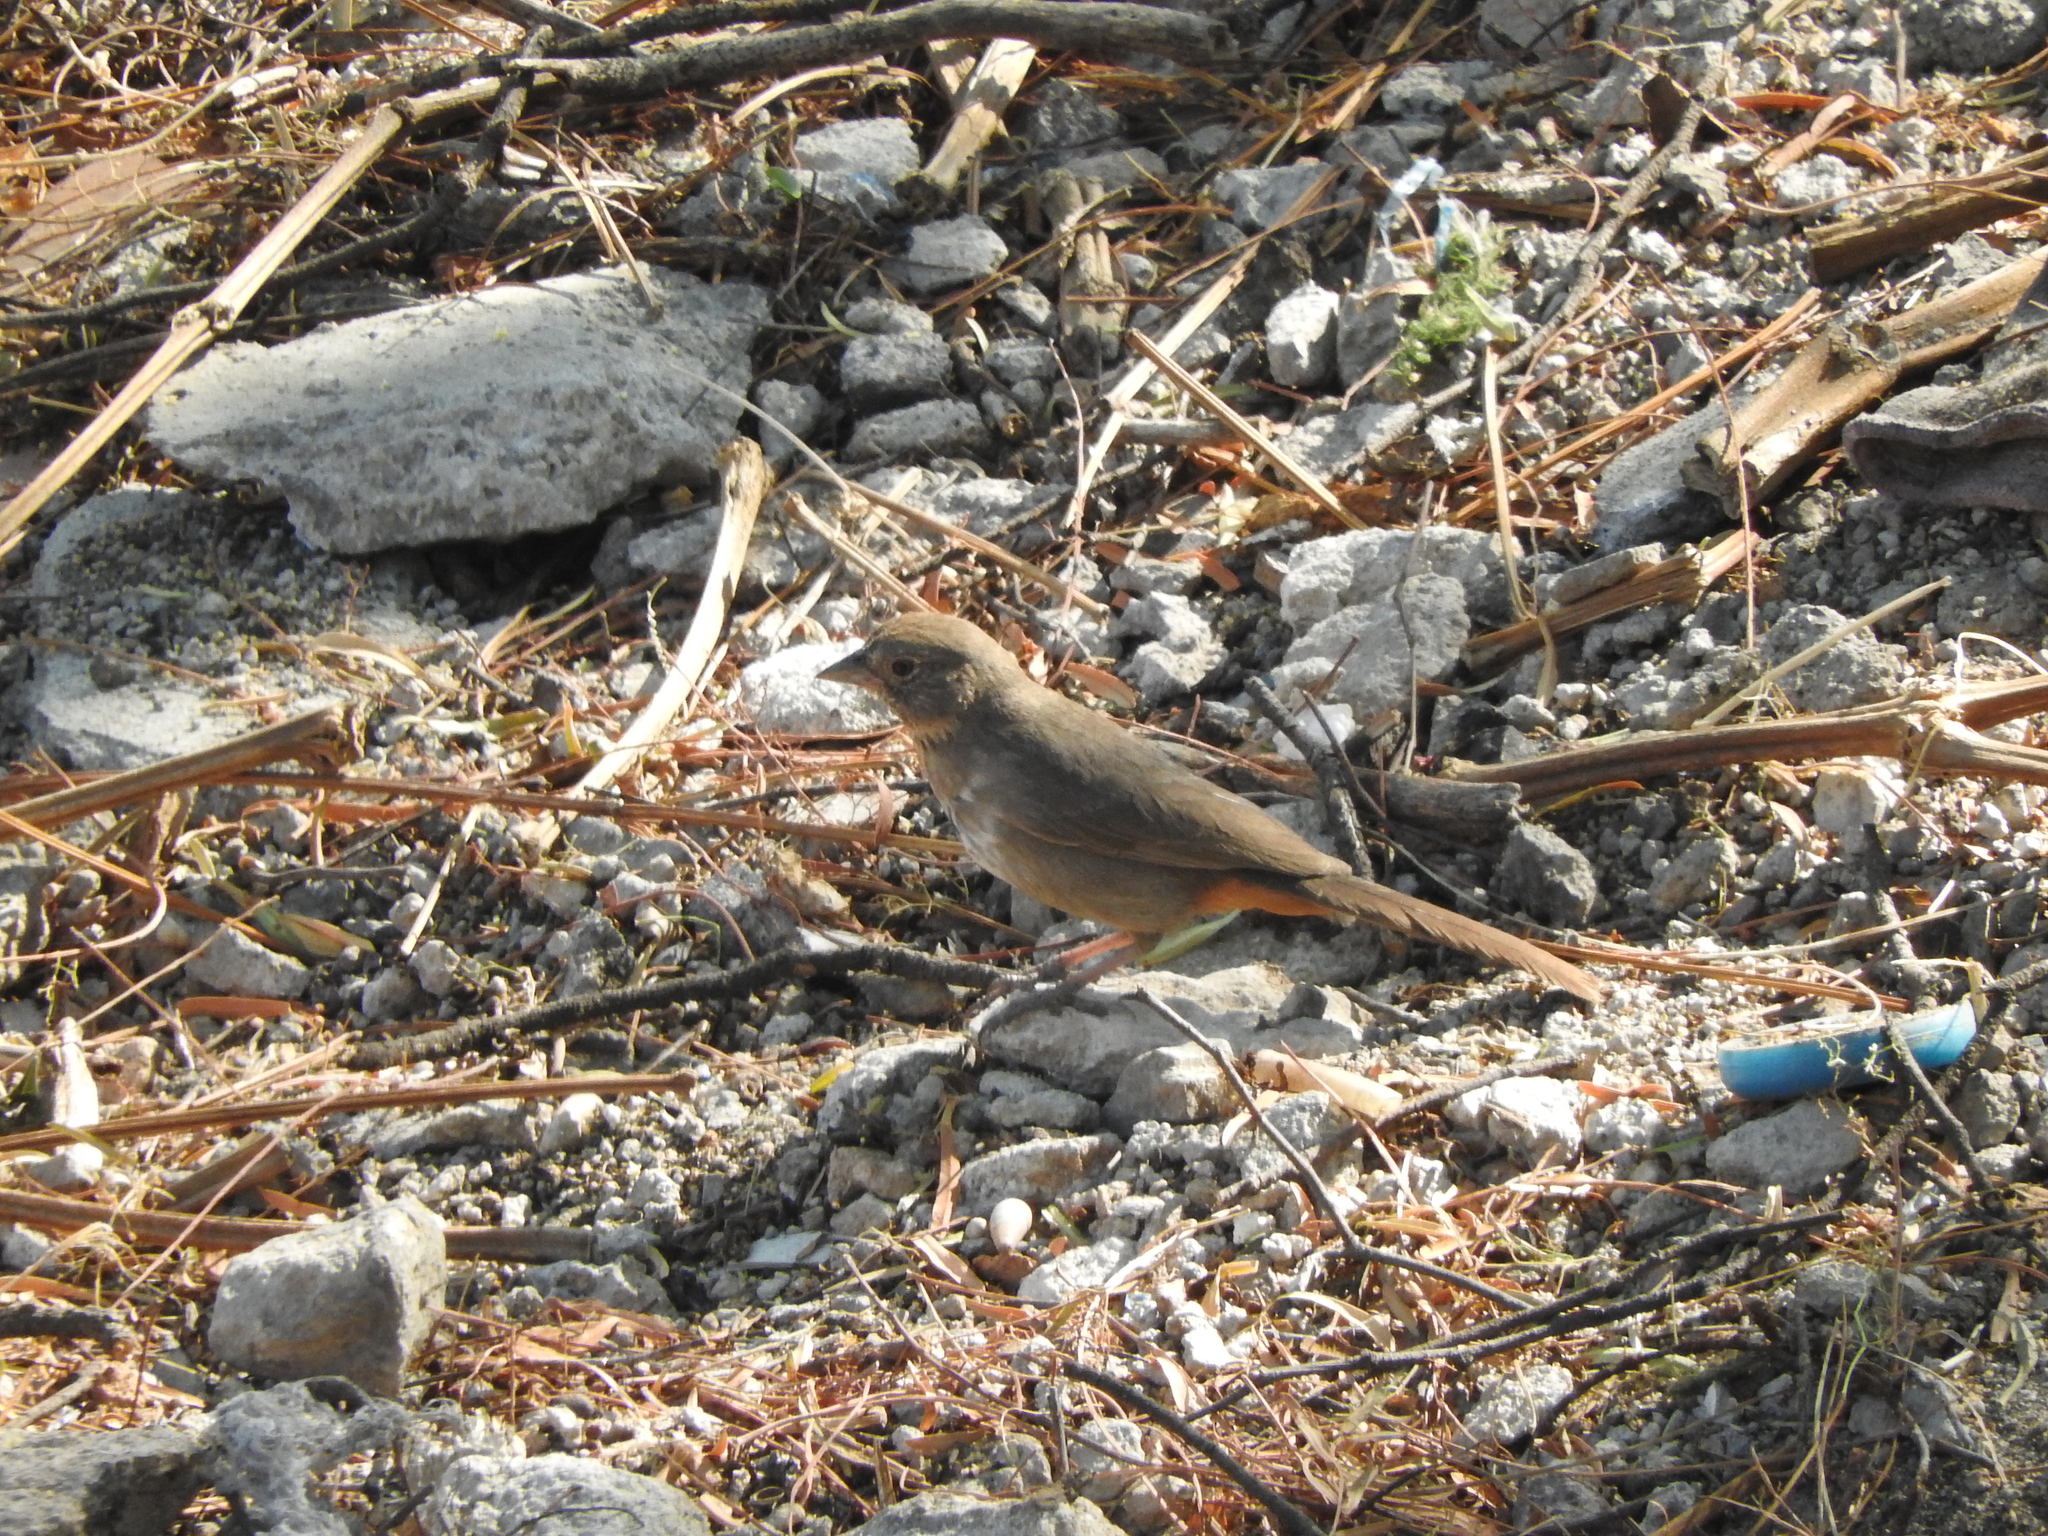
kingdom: Animalia
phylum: Chordata
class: Aves
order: Passeriformes
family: Passerellidae
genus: Melozone
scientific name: Melozone fusca
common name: Canyon towhee
